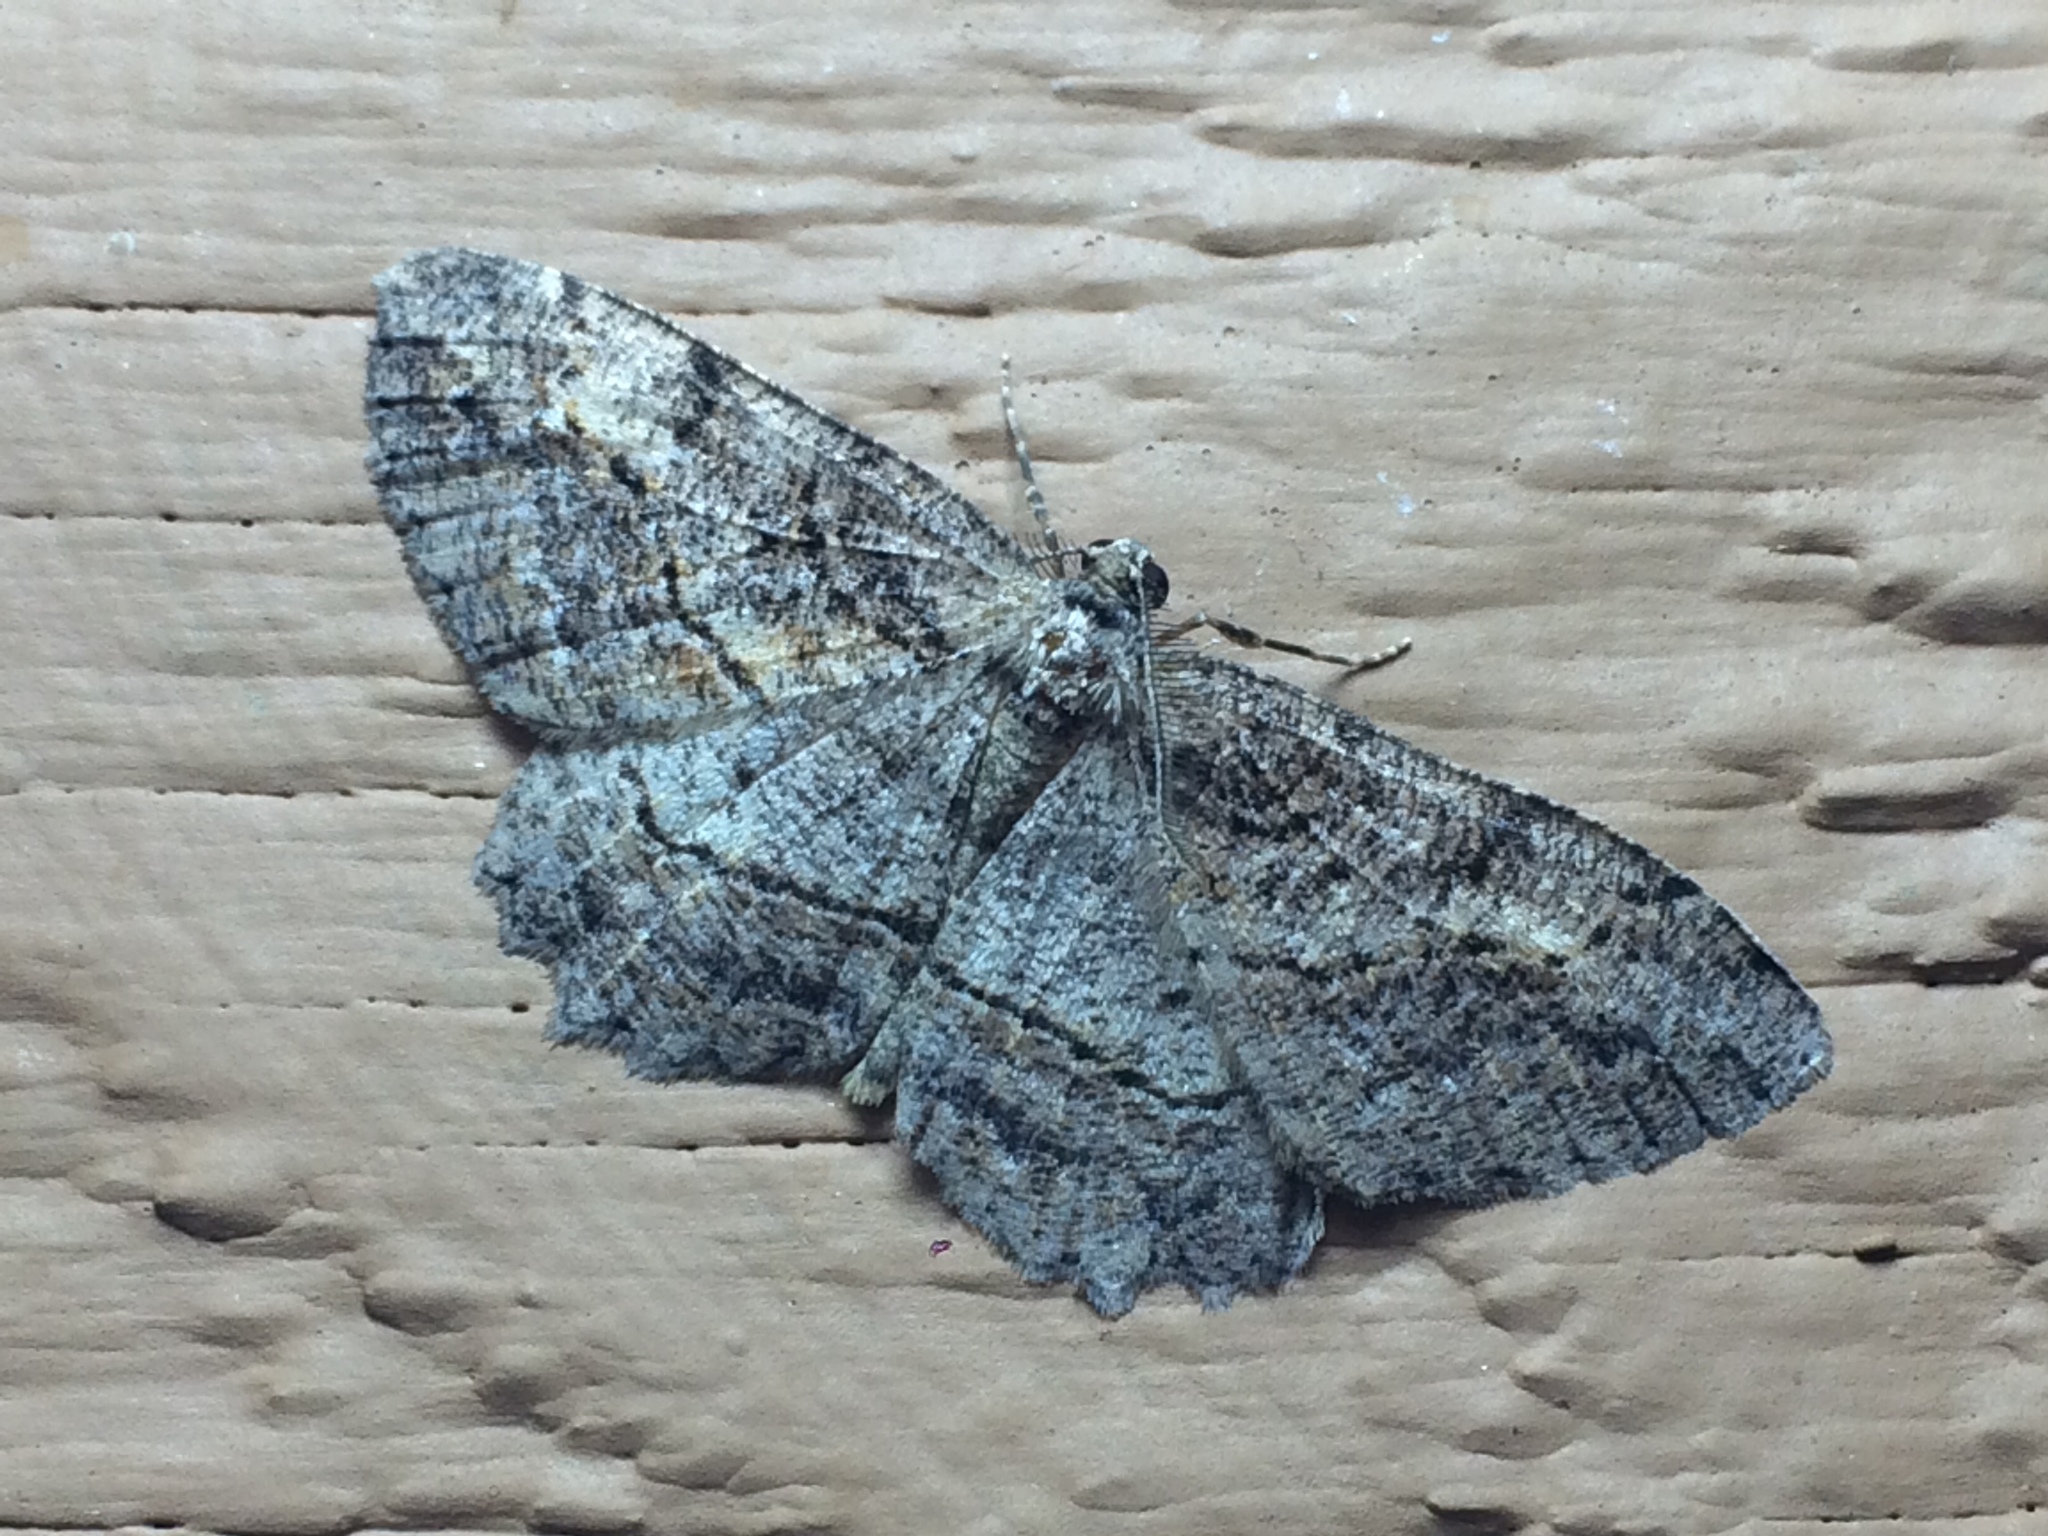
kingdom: Animalia
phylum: Arthropoda
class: Insecta
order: Lepidoptera
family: Geometridae
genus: Neoalcis
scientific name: Neoalcis californiaria
